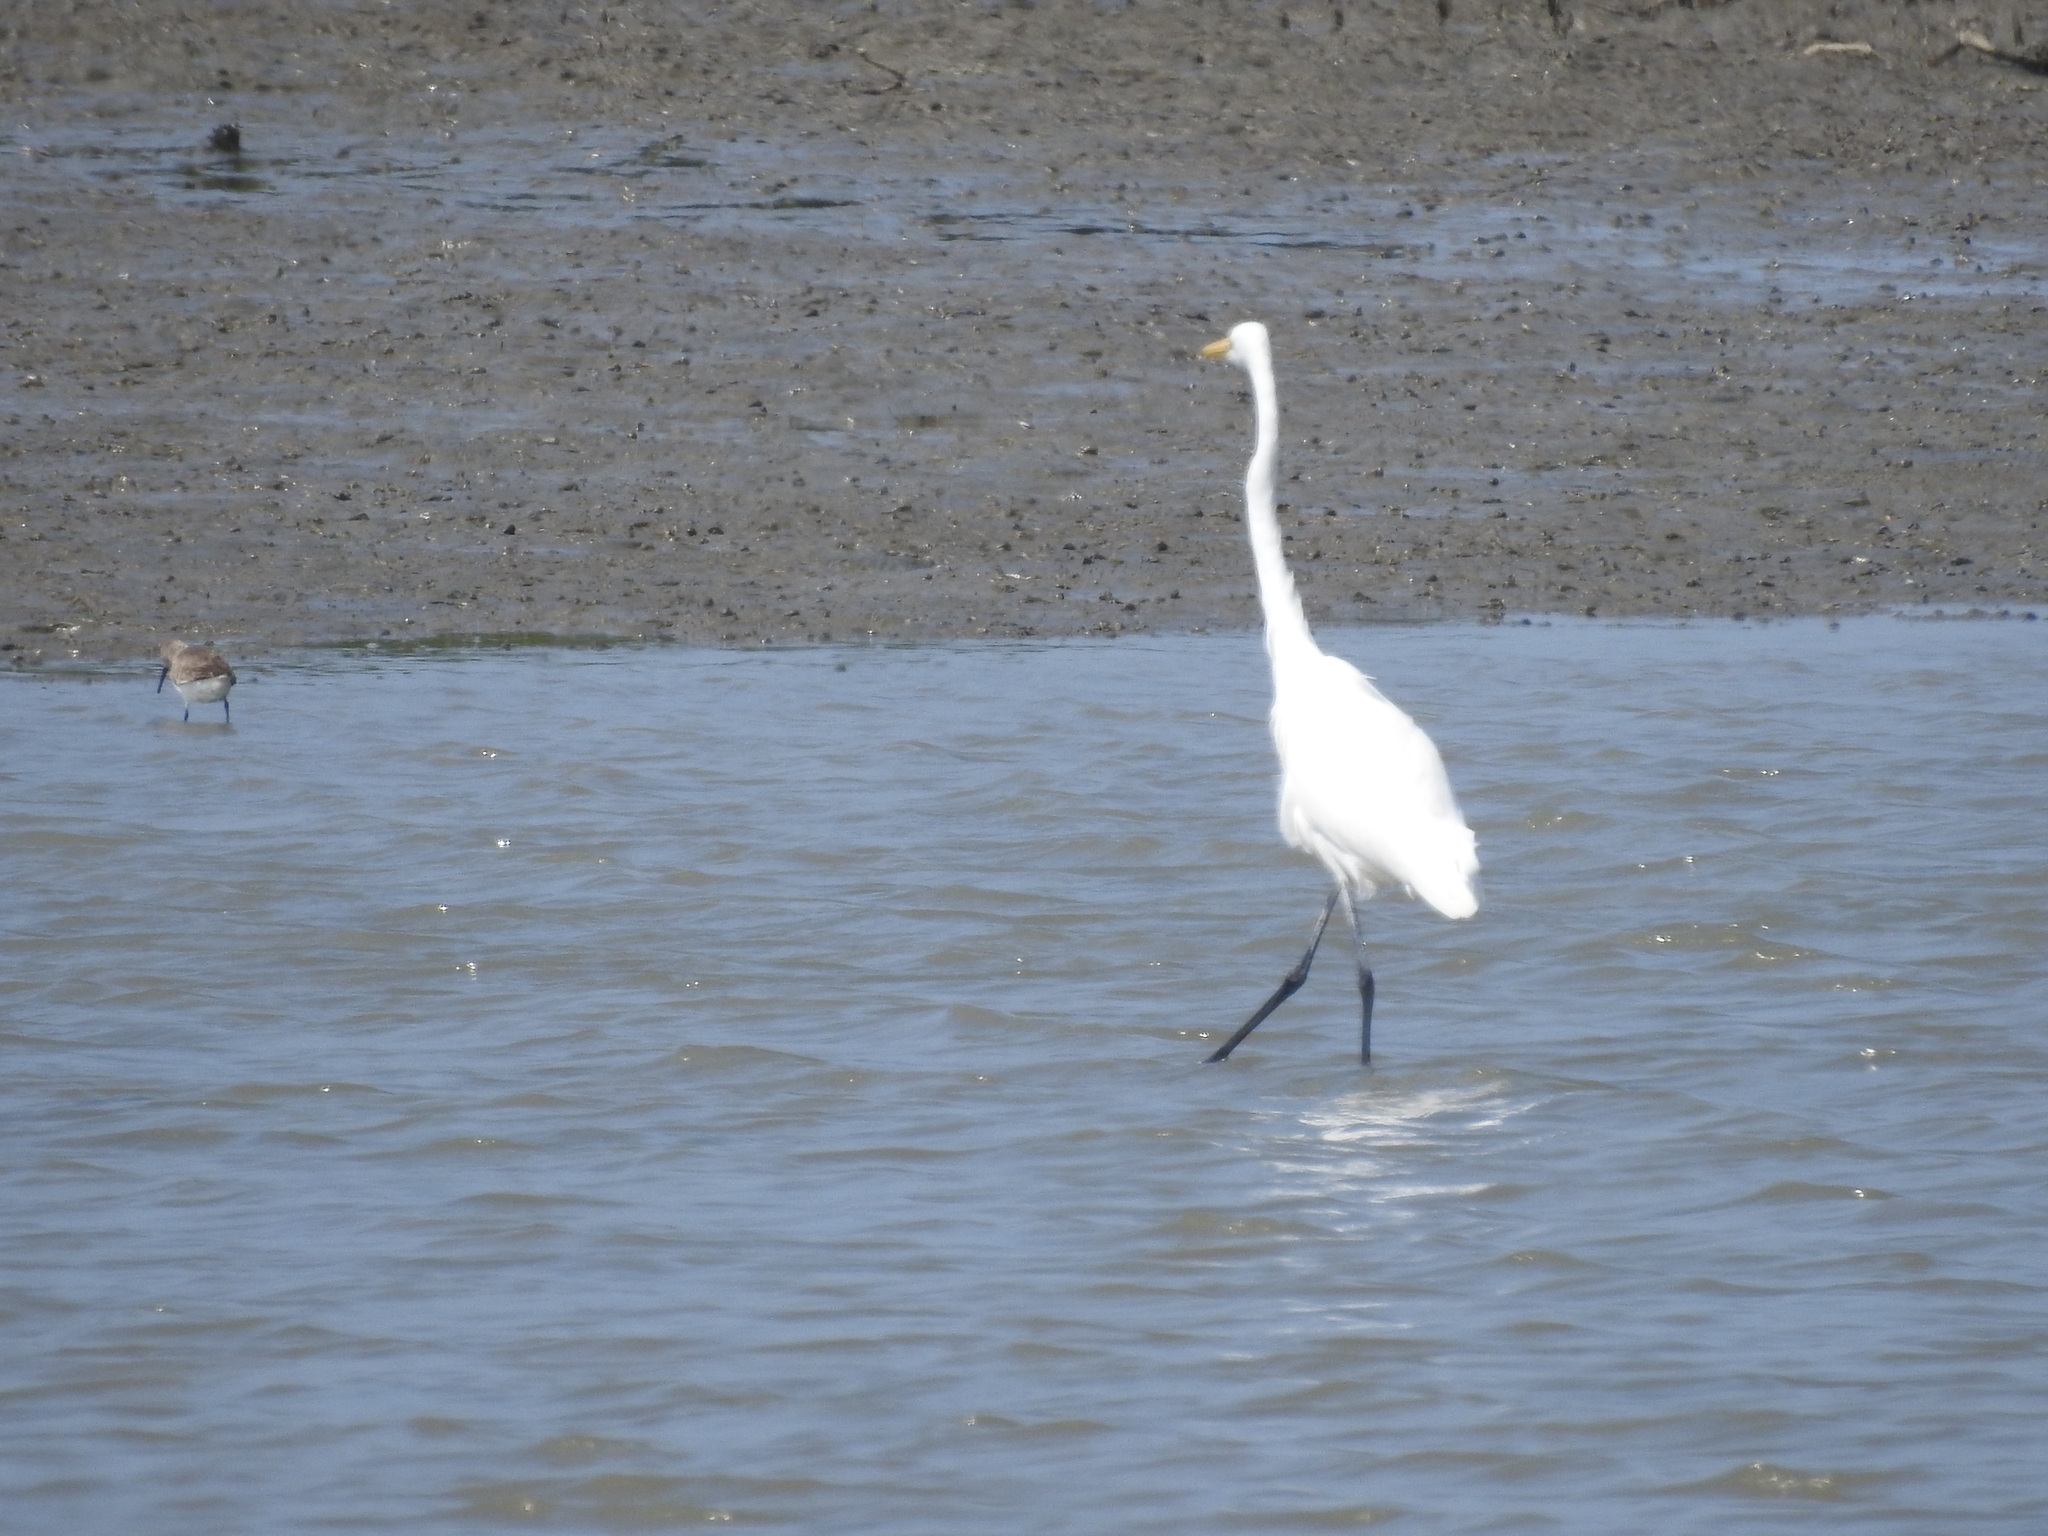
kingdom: Animalia
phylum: Chordata
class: Aves
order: Pelecaniformes
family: Ardeidae
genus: Ardea
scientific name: Ardea alba
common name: Great egret
